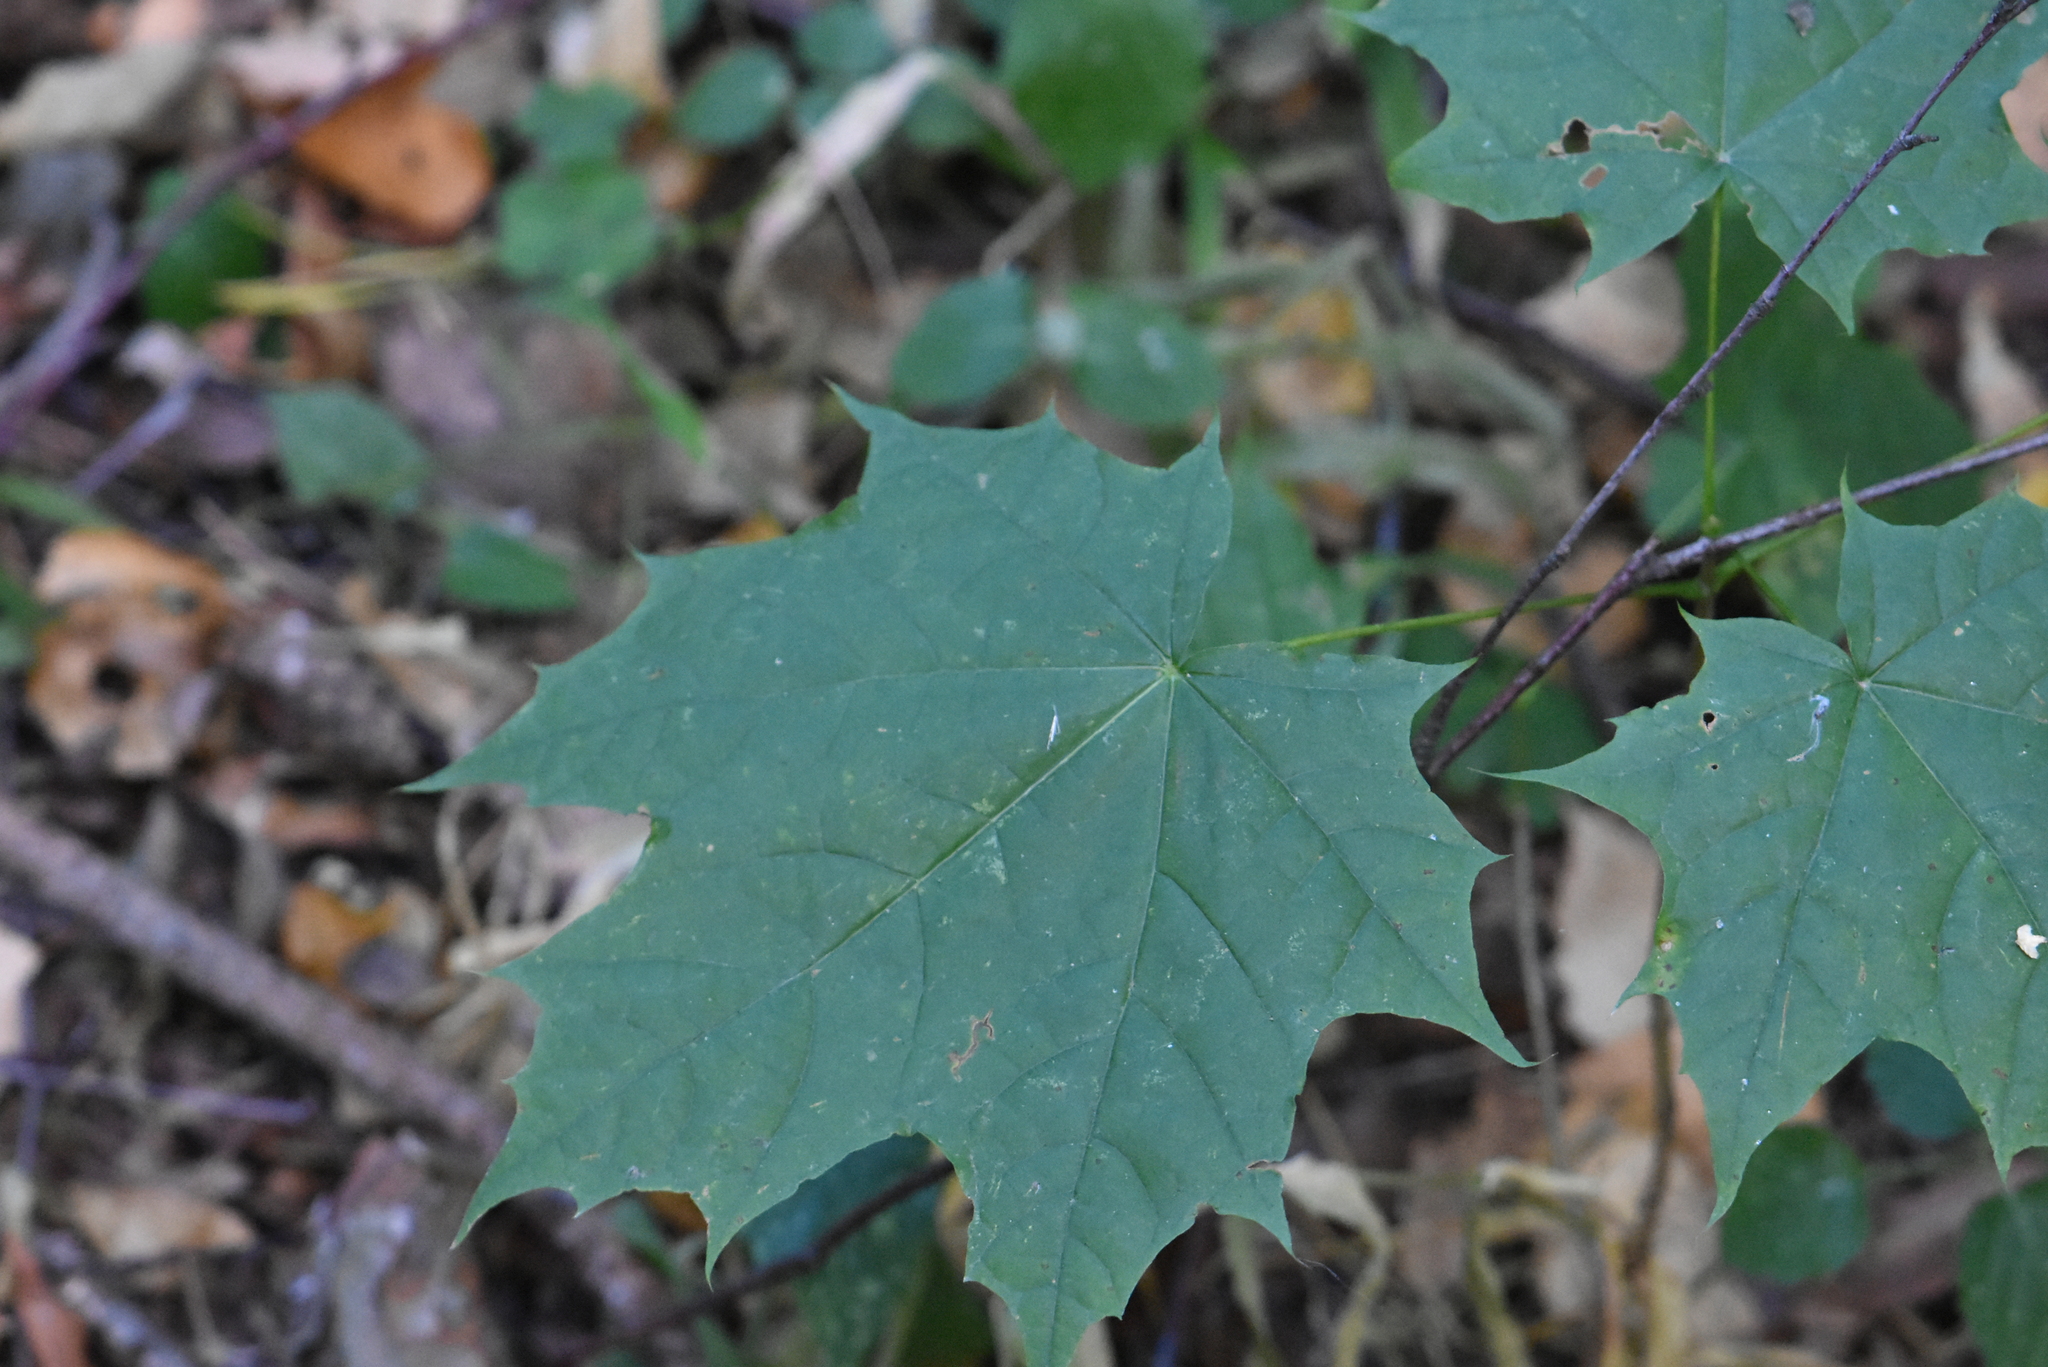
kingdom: Plantae
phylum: Tracheophyta
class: Magnoliopsida
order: Sapindales
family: Sapindaceae
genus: Acer
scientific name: Acer platanoides
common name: Norway maple
